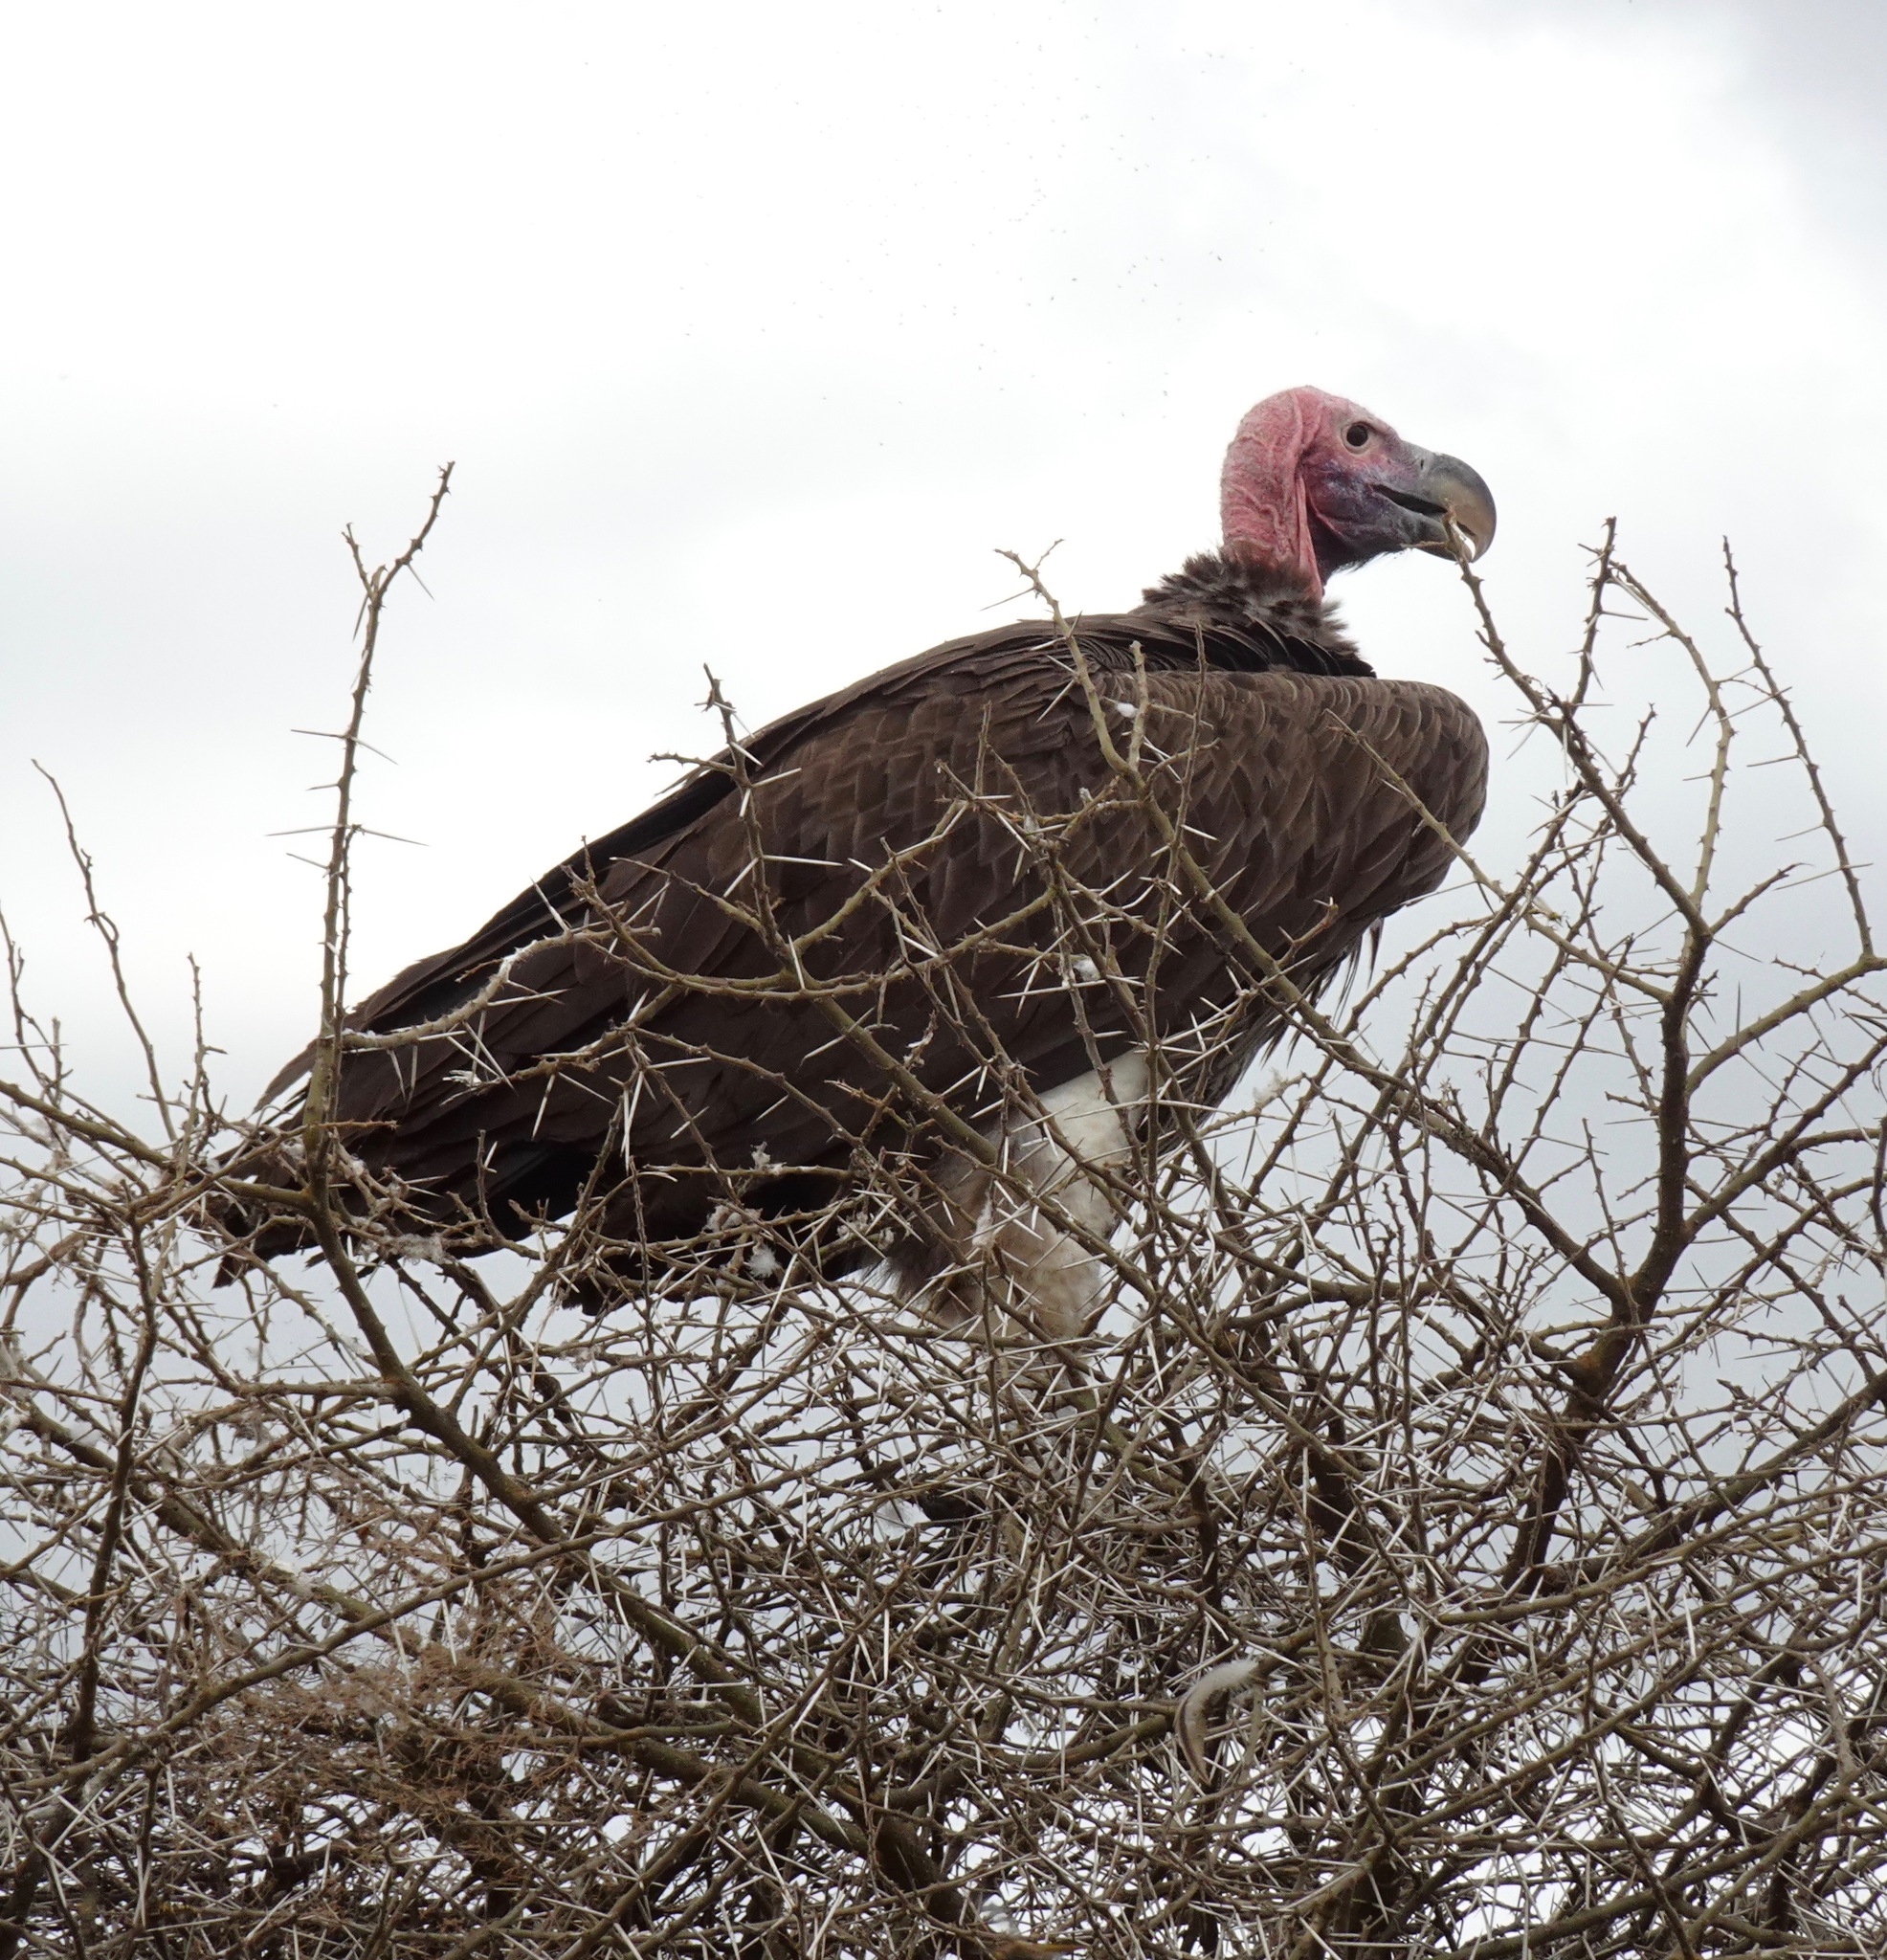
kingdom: Animalia
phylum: Chordata
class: Aves
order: Accipitriformes
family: Accipitridae
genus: Torgos
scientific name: Torgos tracheliotos
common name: Lappet-faced vulture
